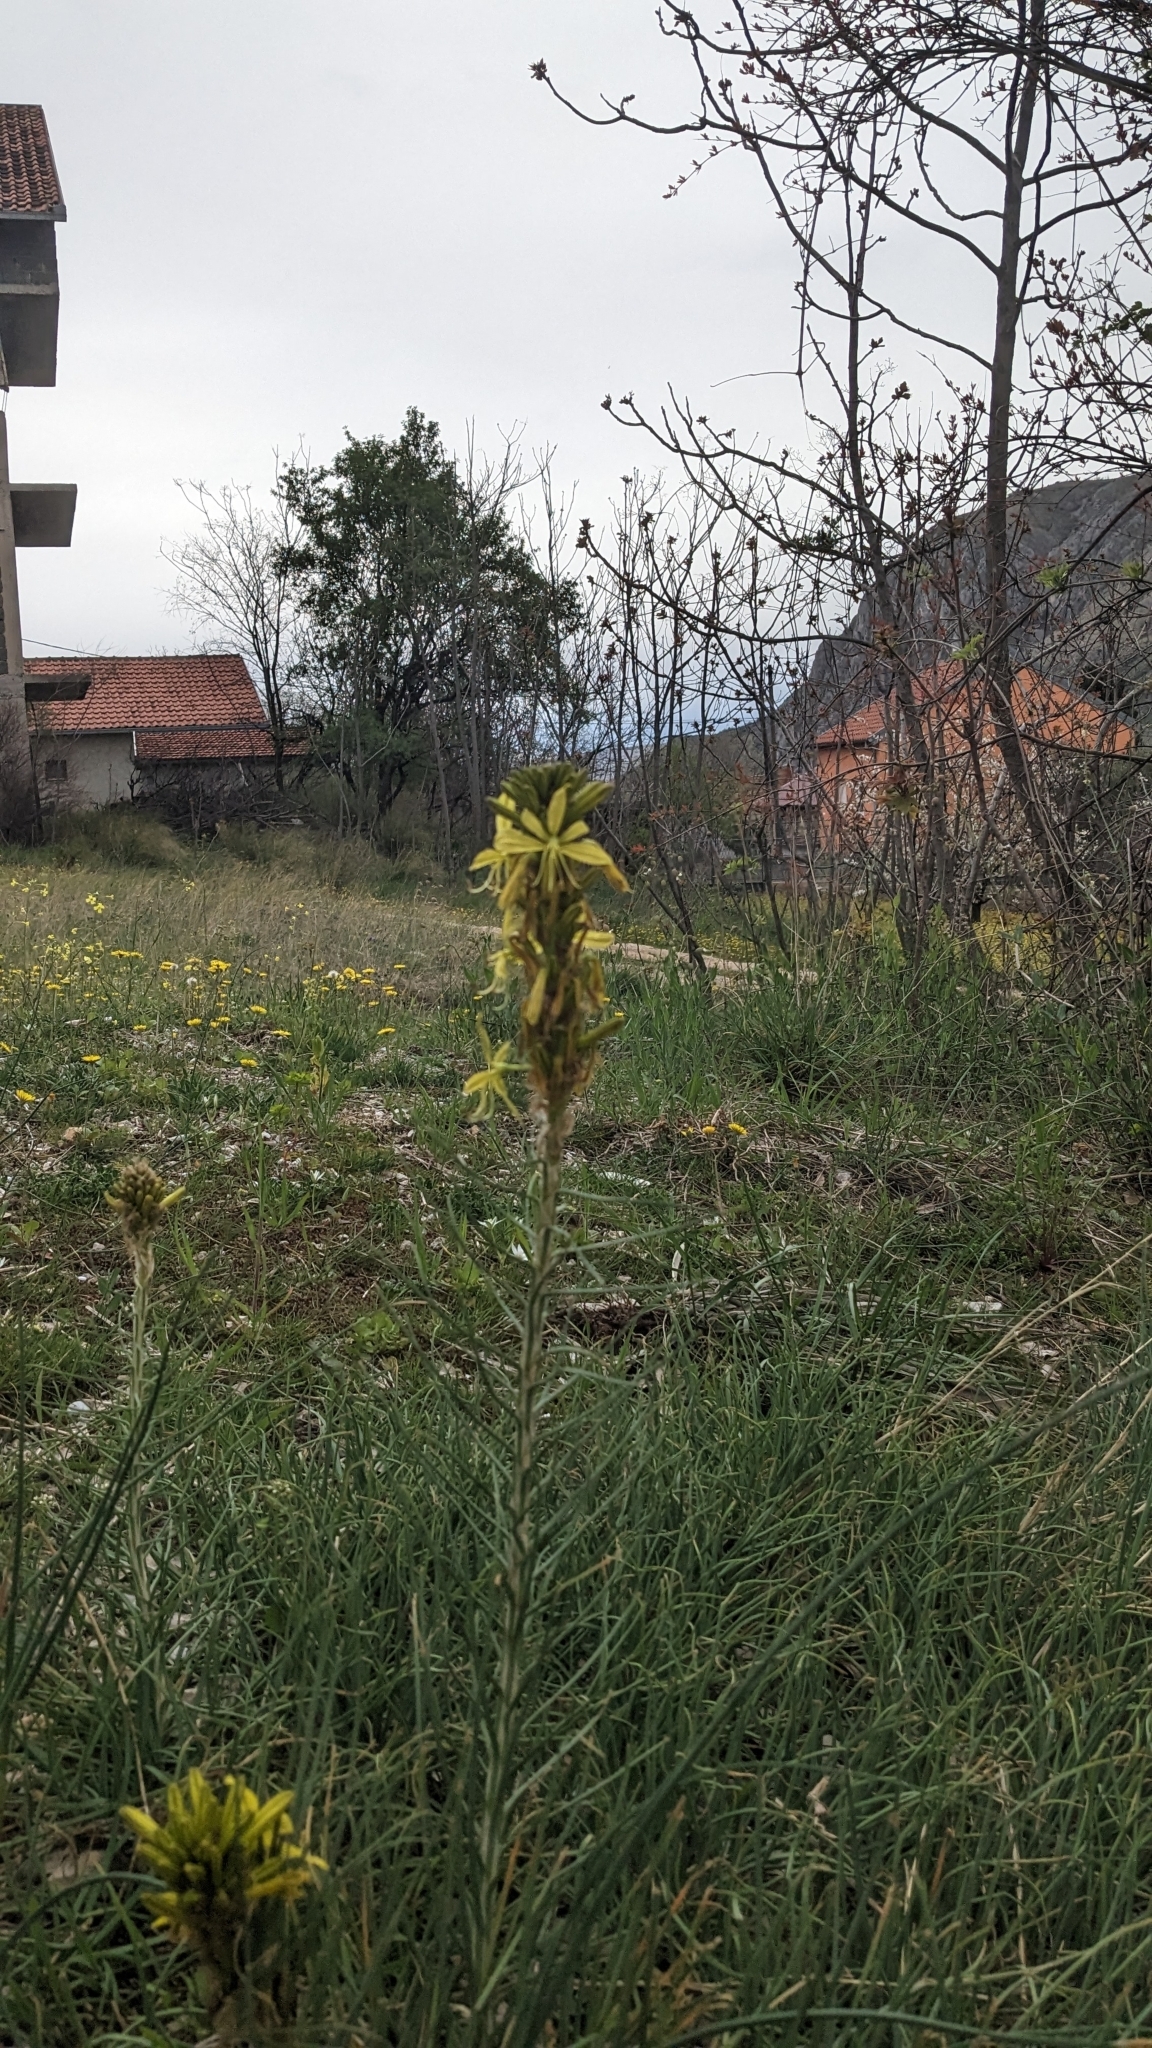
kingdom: Plantae
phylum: Tracheophyta
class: Liliopsida
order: Asparagales
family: Asphodelaceae
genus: Asphodeline
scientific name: Asphodeline lutea
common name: Yellow asphodel
